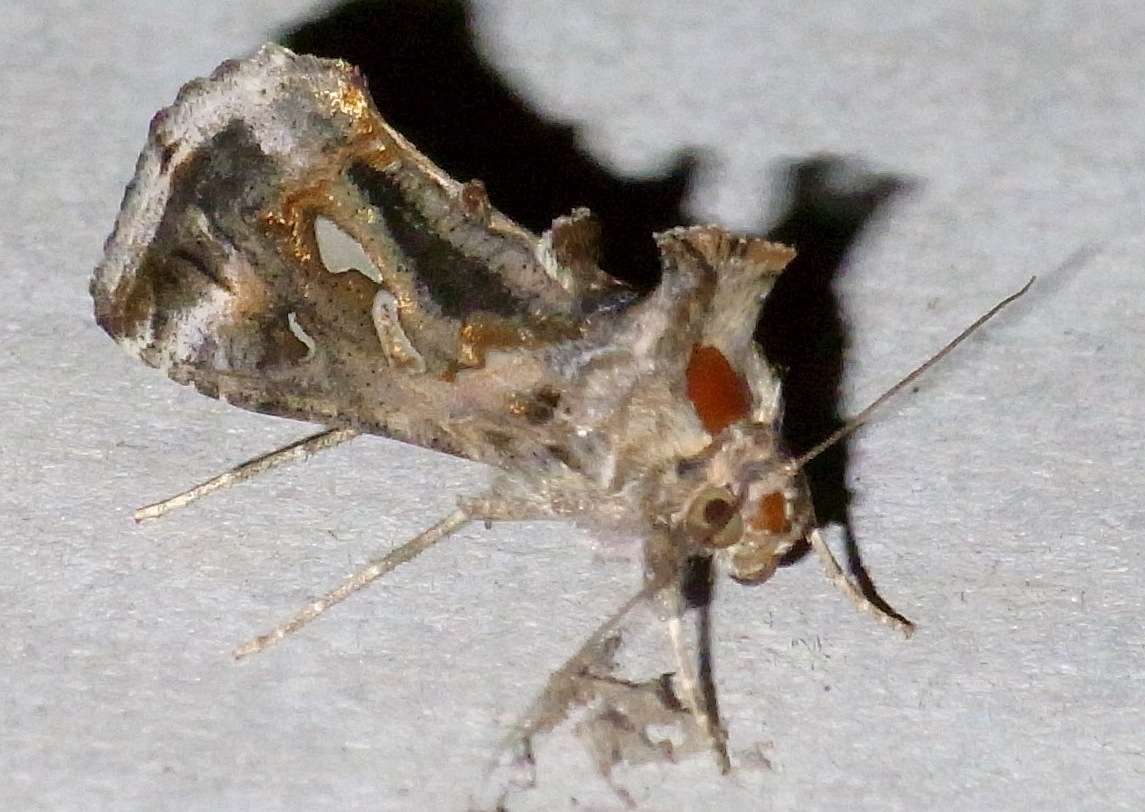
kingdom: Animalia
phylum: Arthropoda
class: Insecta
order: Lepidoptera
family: Noctuidae
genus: Chrysodeixis
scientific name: Chrysodeixis argentifera
